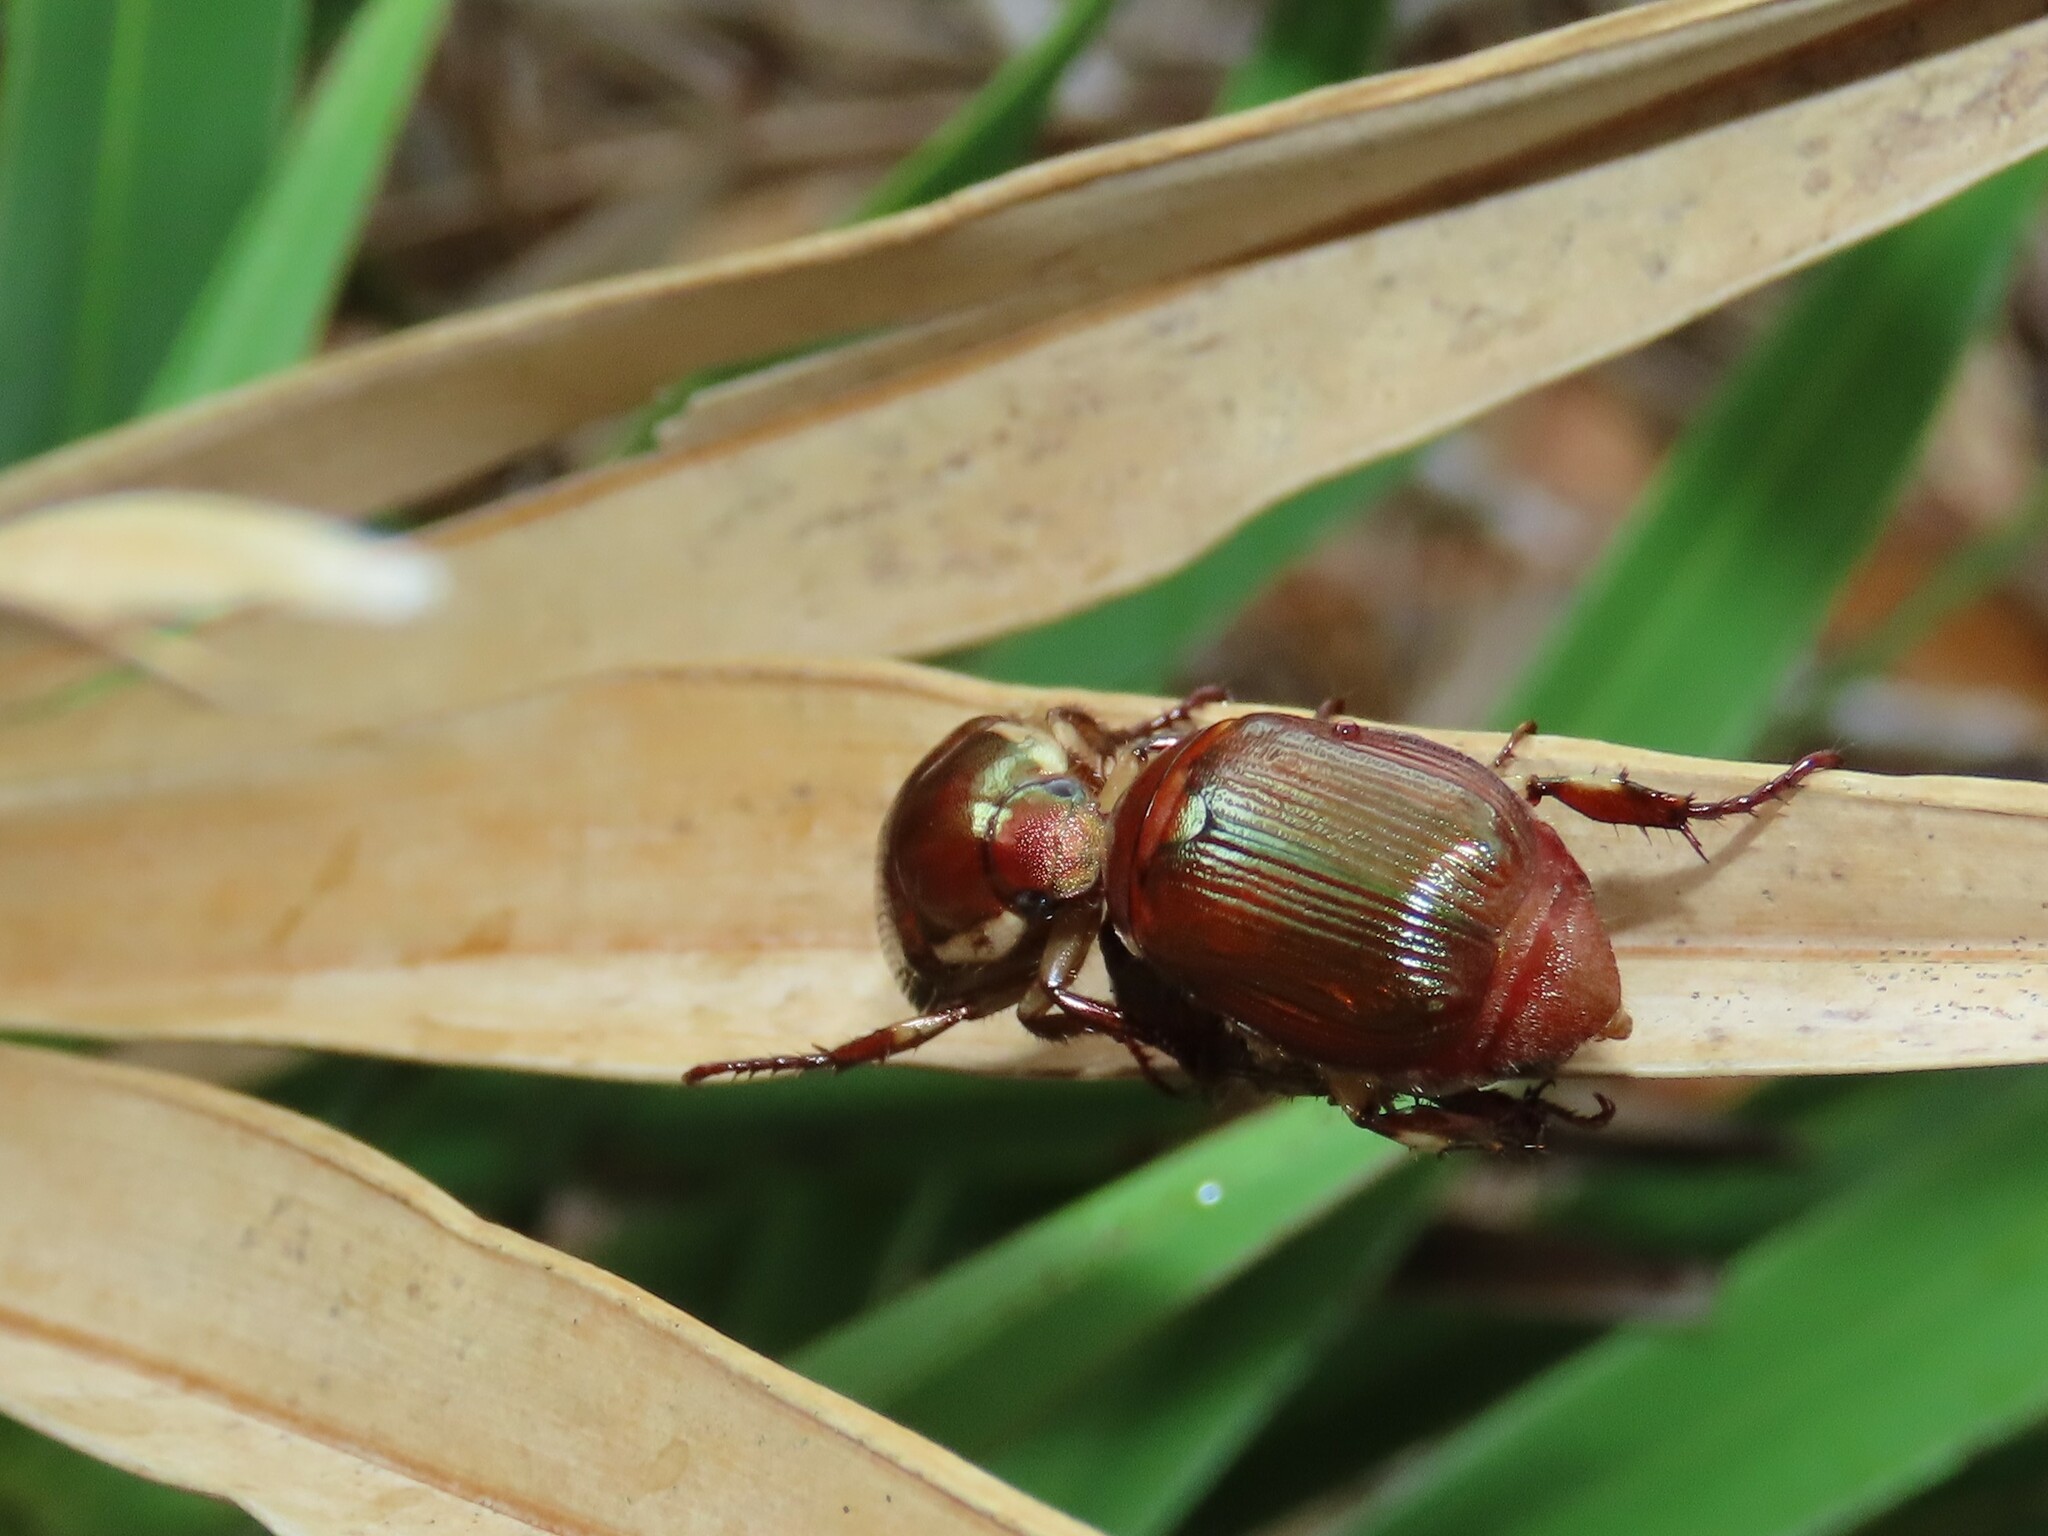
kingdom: Animalia
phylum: Arthropoda
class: Insecta
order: Coleoptera
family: Scarabaeidae
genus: Callistethus
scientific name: Callistethus marginatus
